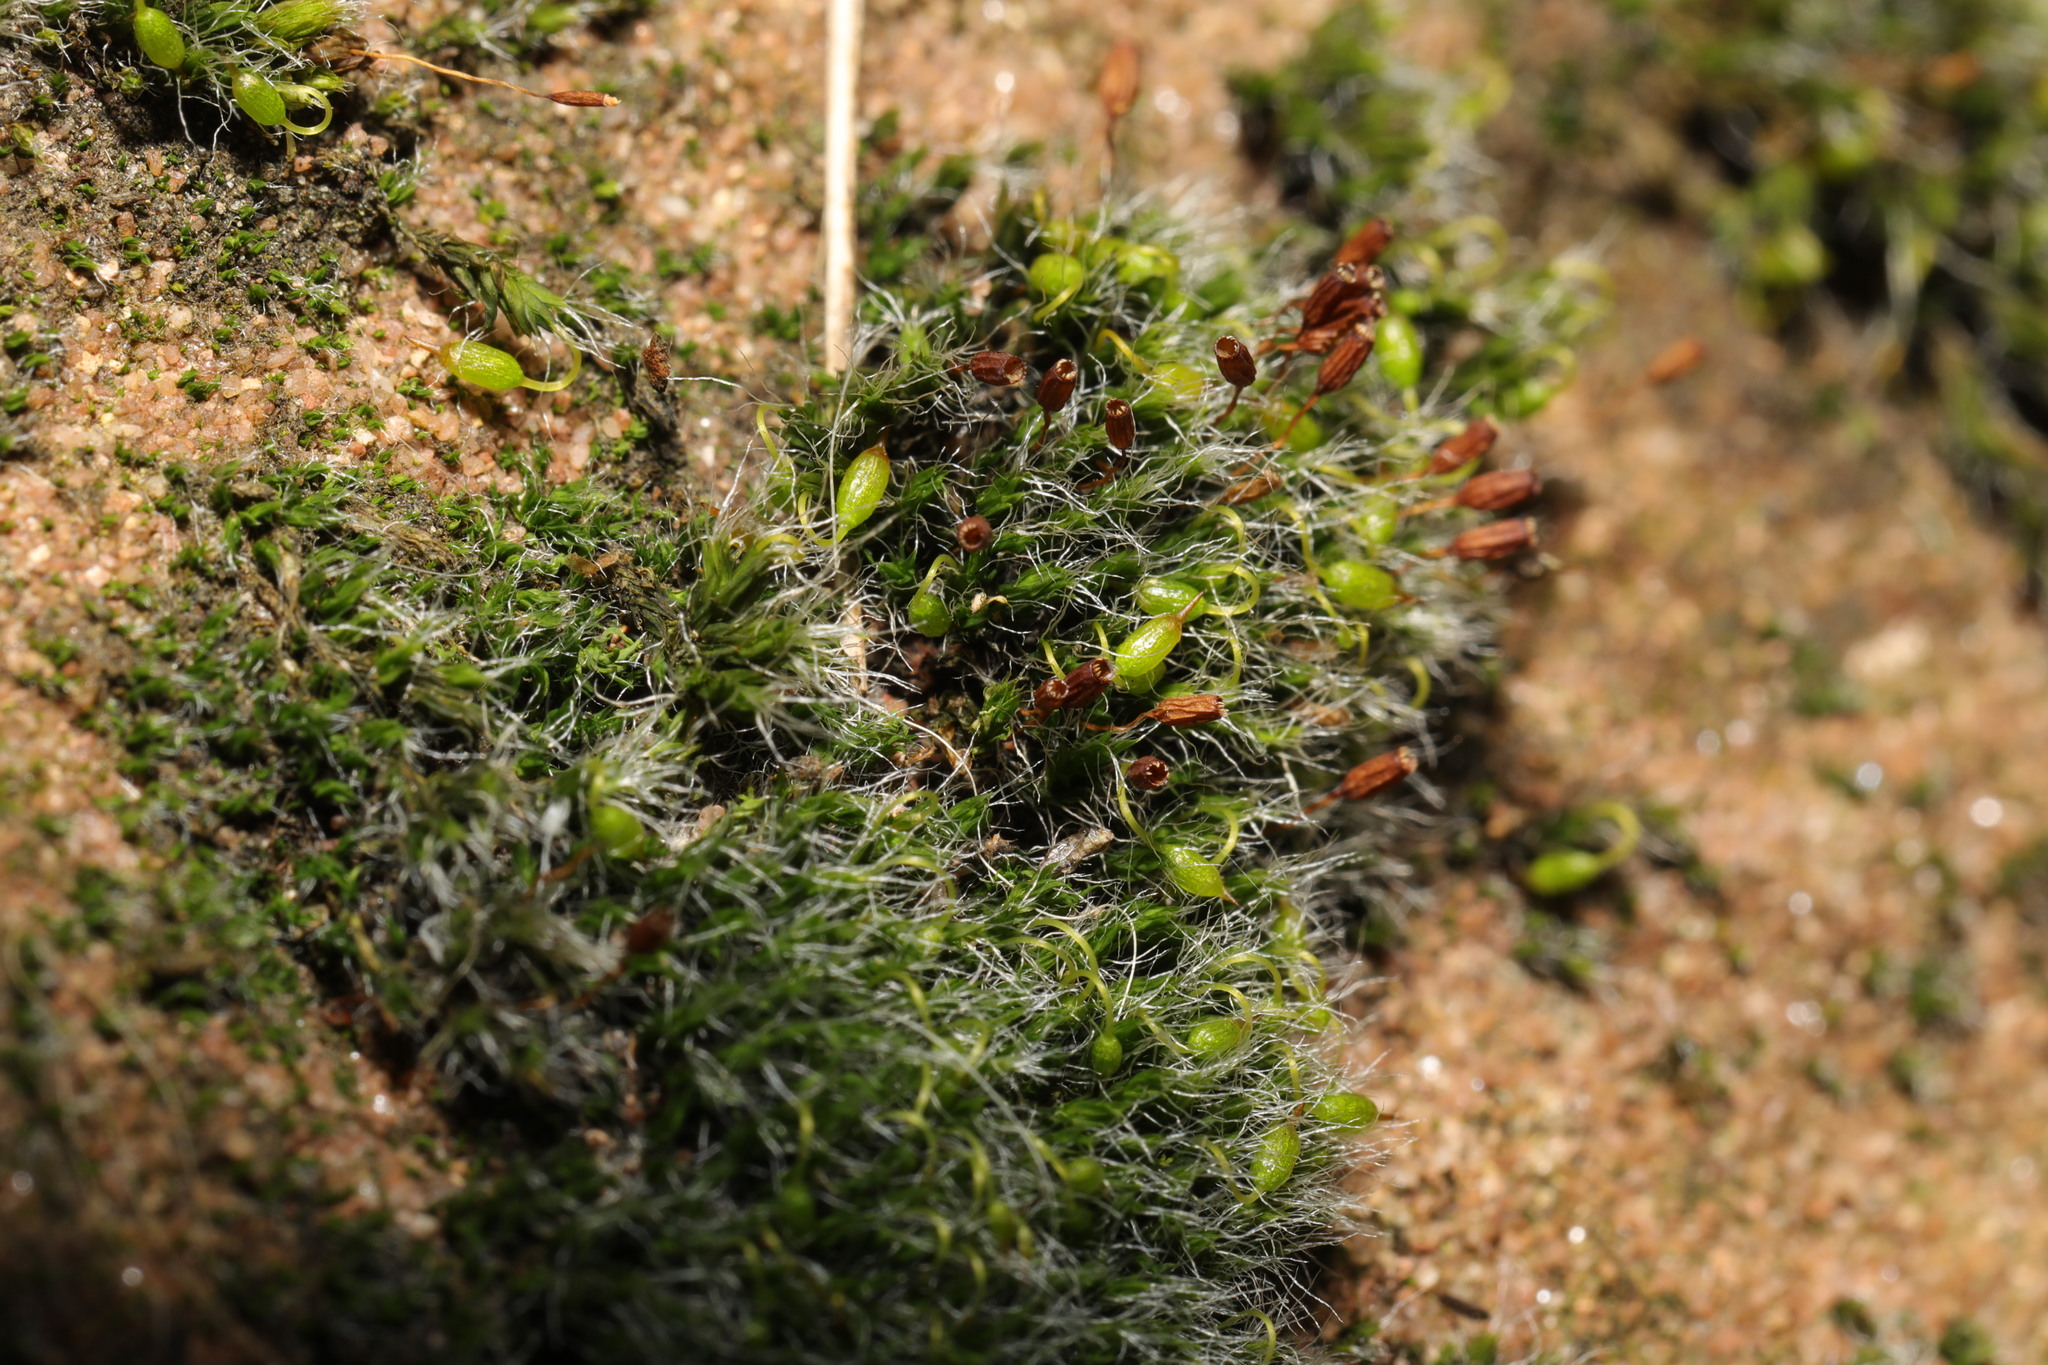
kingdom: Plantae
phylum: Bryophyta
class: Bryopsida
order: Grimmiales
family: Grimmiaceae
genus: Grimmia
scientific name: Grimmia pulvinata
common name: Grey-cushioned grimmia
